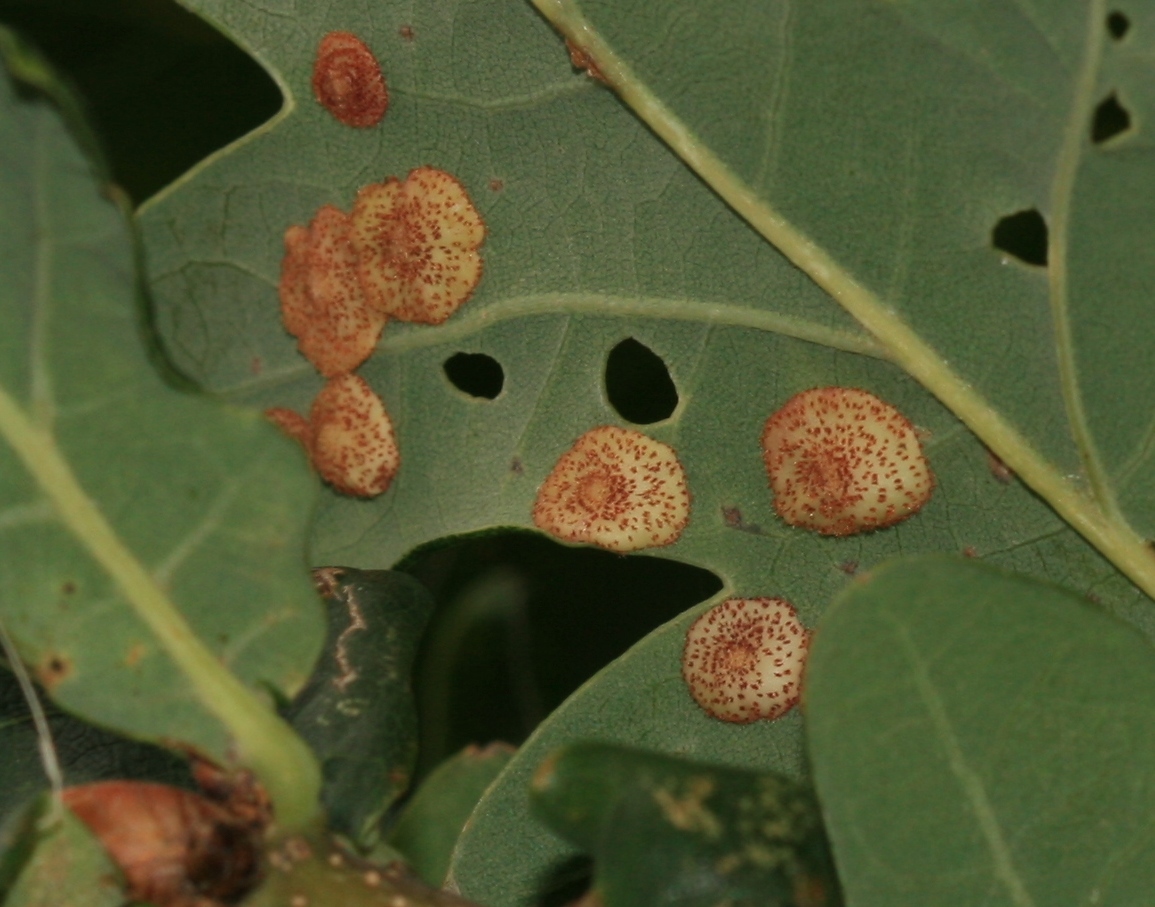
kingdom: Animalia
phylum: Arthropoda
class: Insecta
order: Hymenoptera
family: Cynipidae
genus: Neuroterus
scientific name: Neuroterus quercusbaccarum
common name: Common spangle gall
